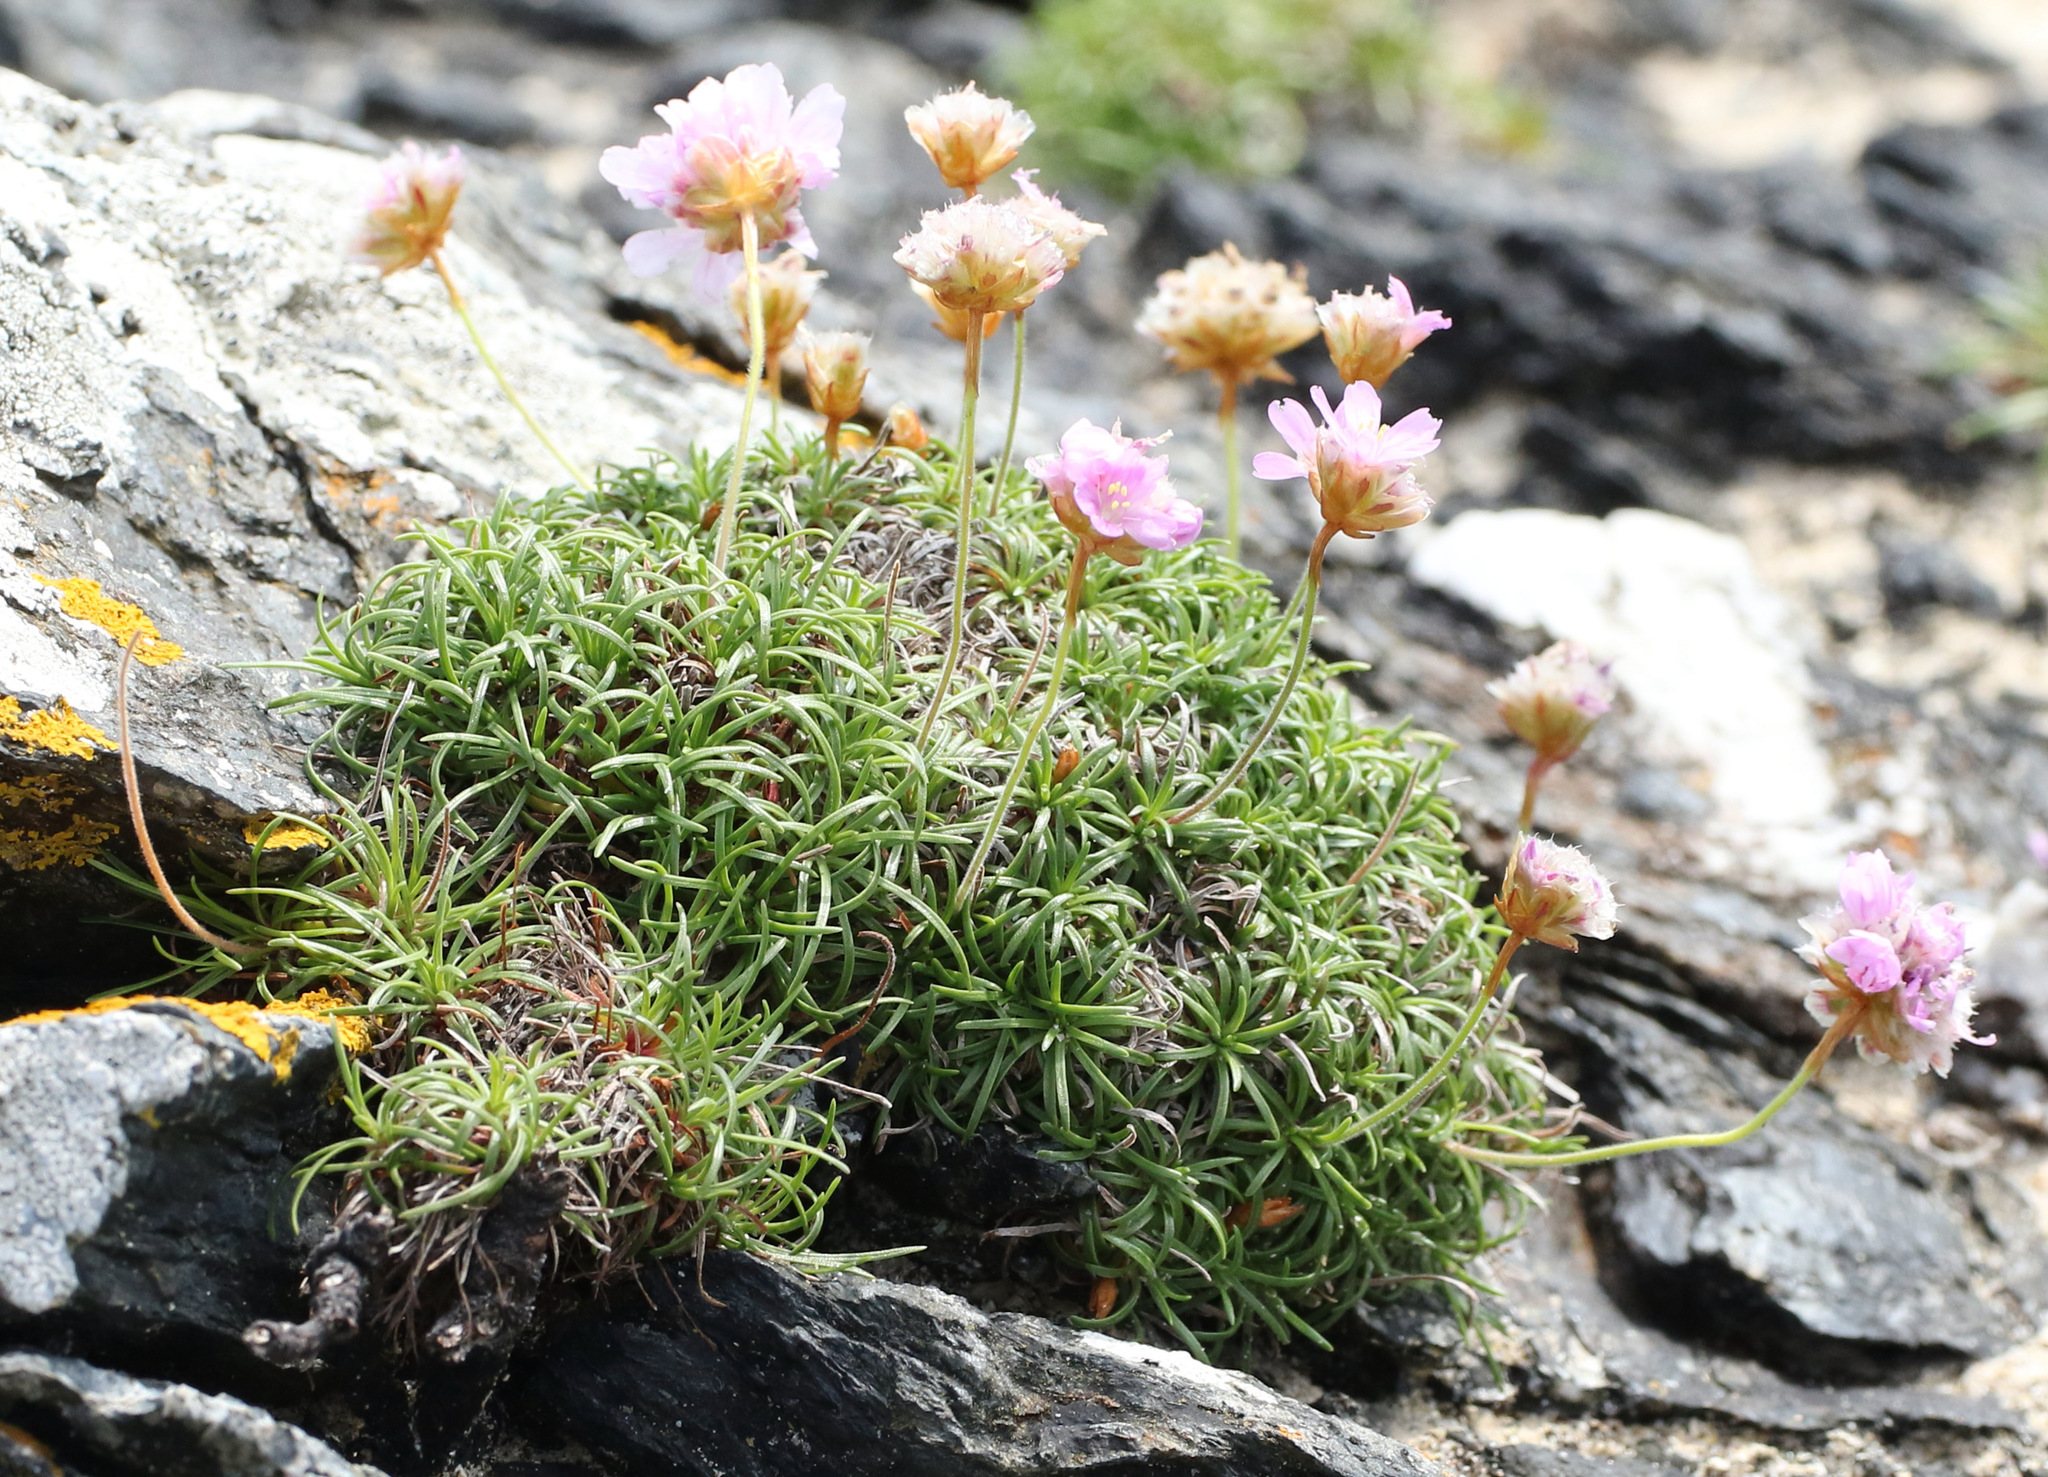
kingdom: Plantae
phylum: Tracheophyta
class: Magnoliopsida
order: Caryophyllales
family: Plumbaginaceae
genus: Armeria
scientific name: Armeria maritima
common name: Thrift
